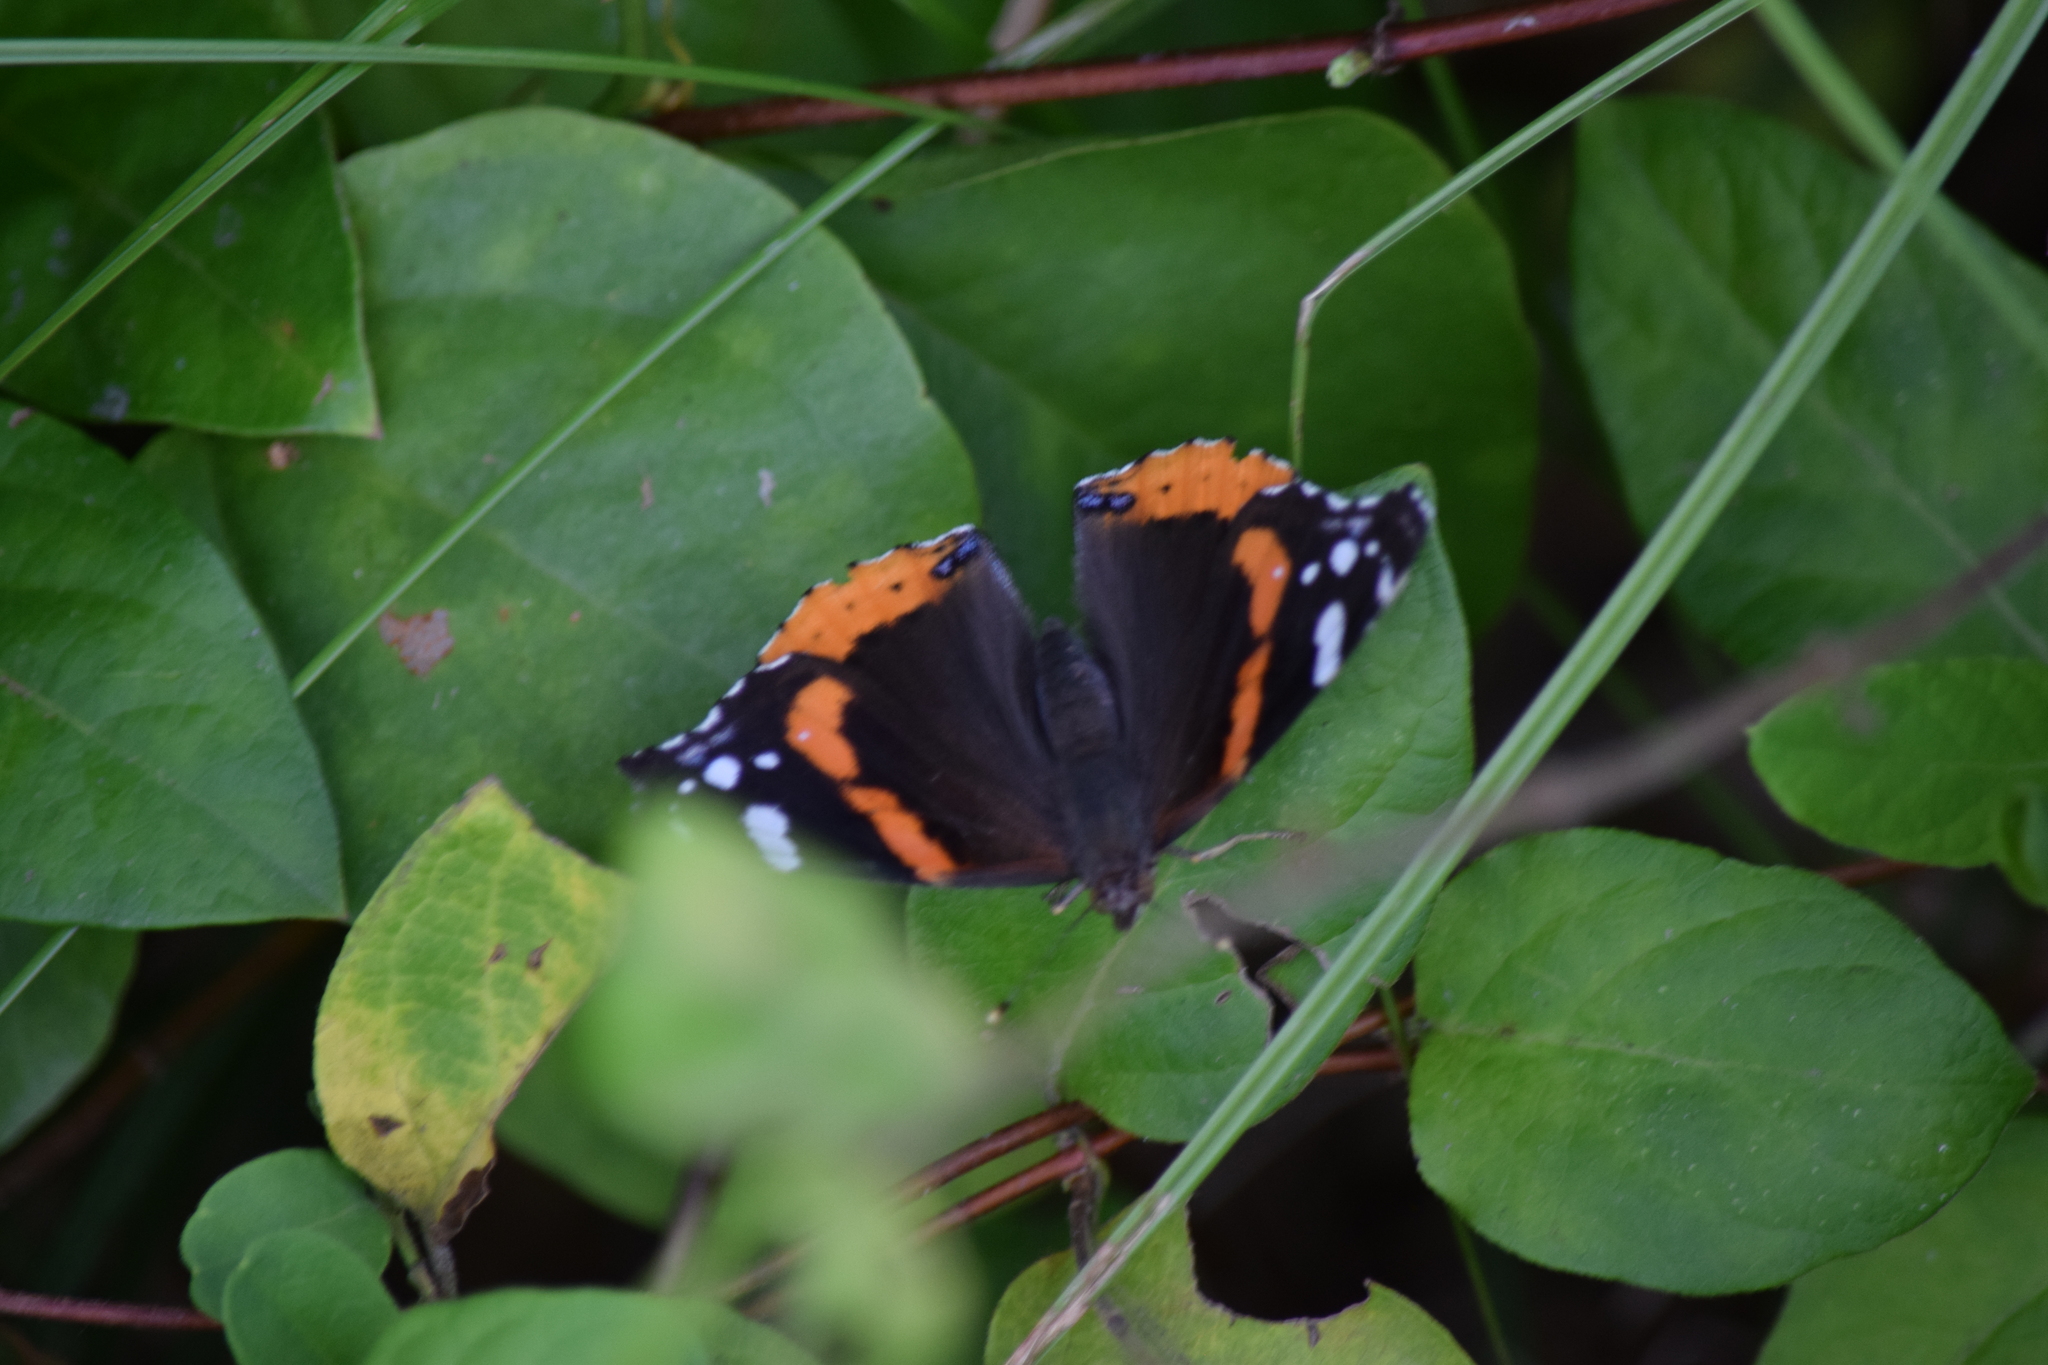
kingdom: Animalia
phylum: Arthropoda
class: Insecta
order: Lepidoptera
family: Nymphalidae
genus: Vanessa
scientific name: Vanessa atalanta
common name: Red admiral
